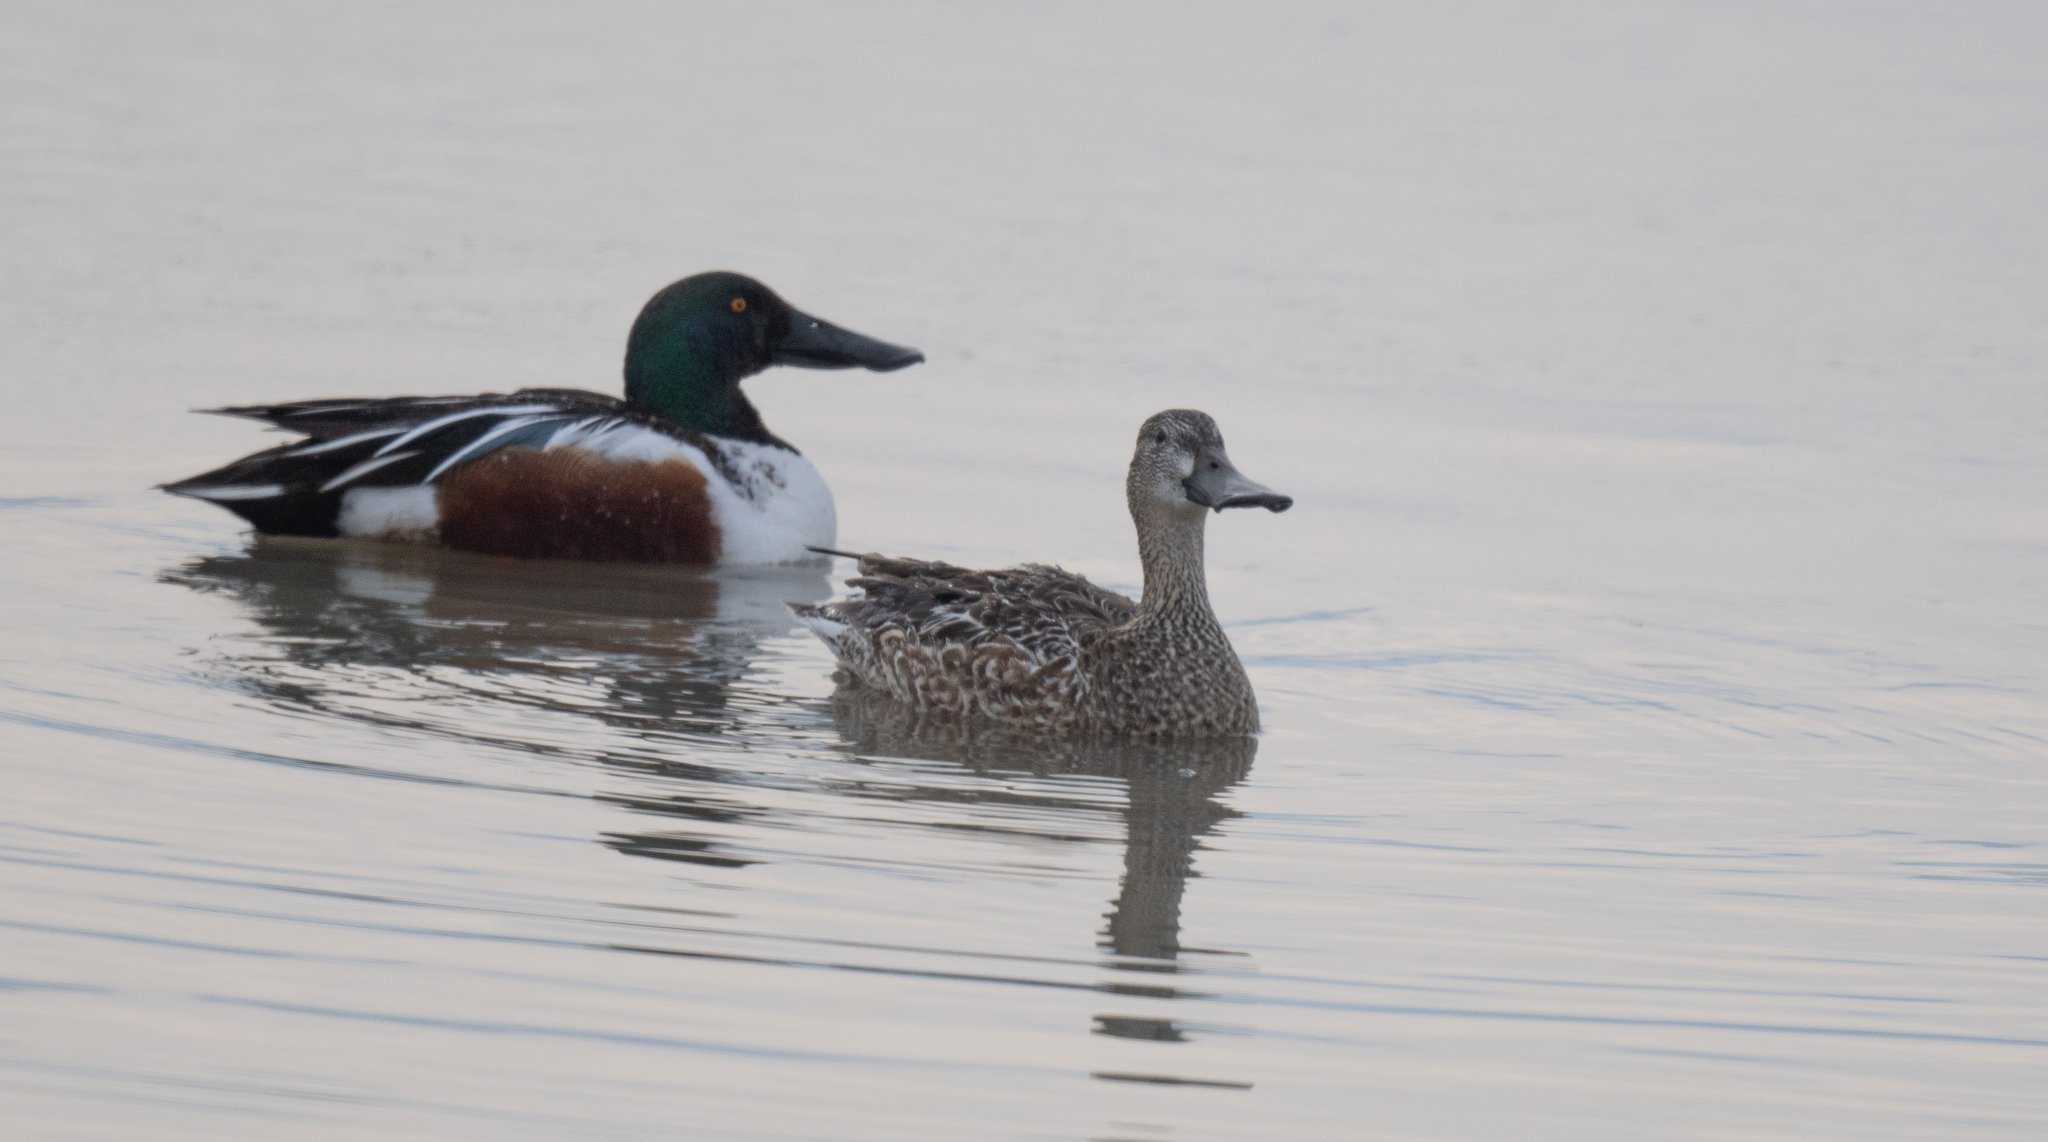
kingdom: Animalia
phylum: Chordata
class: Aves
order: Anseriformes
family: Anatidae
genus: Spatula
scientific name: Spatula clypeata
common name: Northern shoveler
